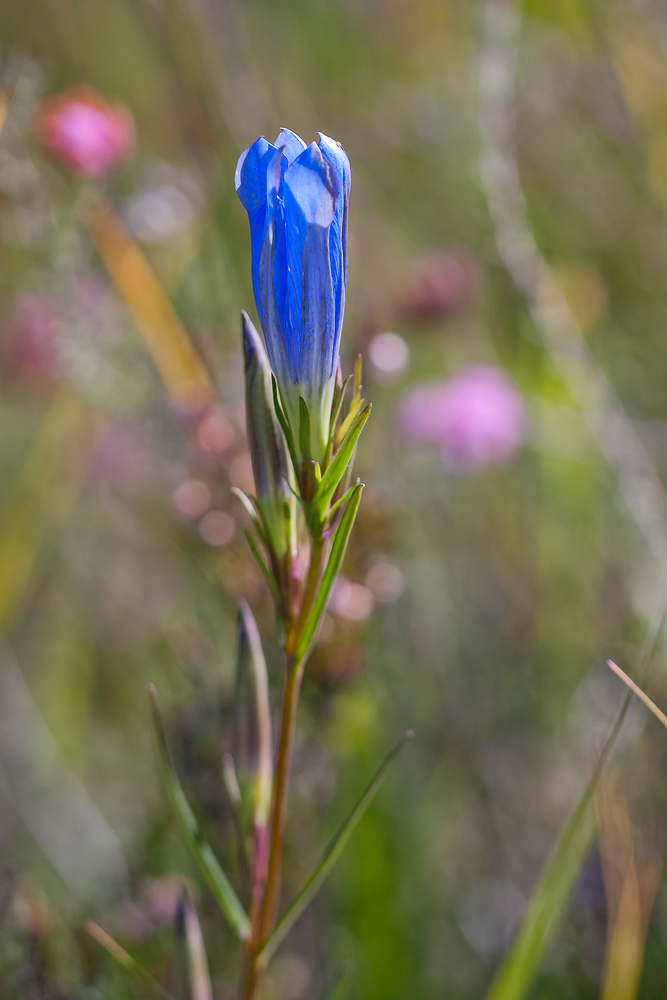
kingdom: Plantae
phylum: Tracheophyta
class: Magnoliopsida
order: Gentianales
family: Gentianaceae
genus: Gentiana
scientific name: Gentiana pneumonanthe
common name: Marsh gentian
